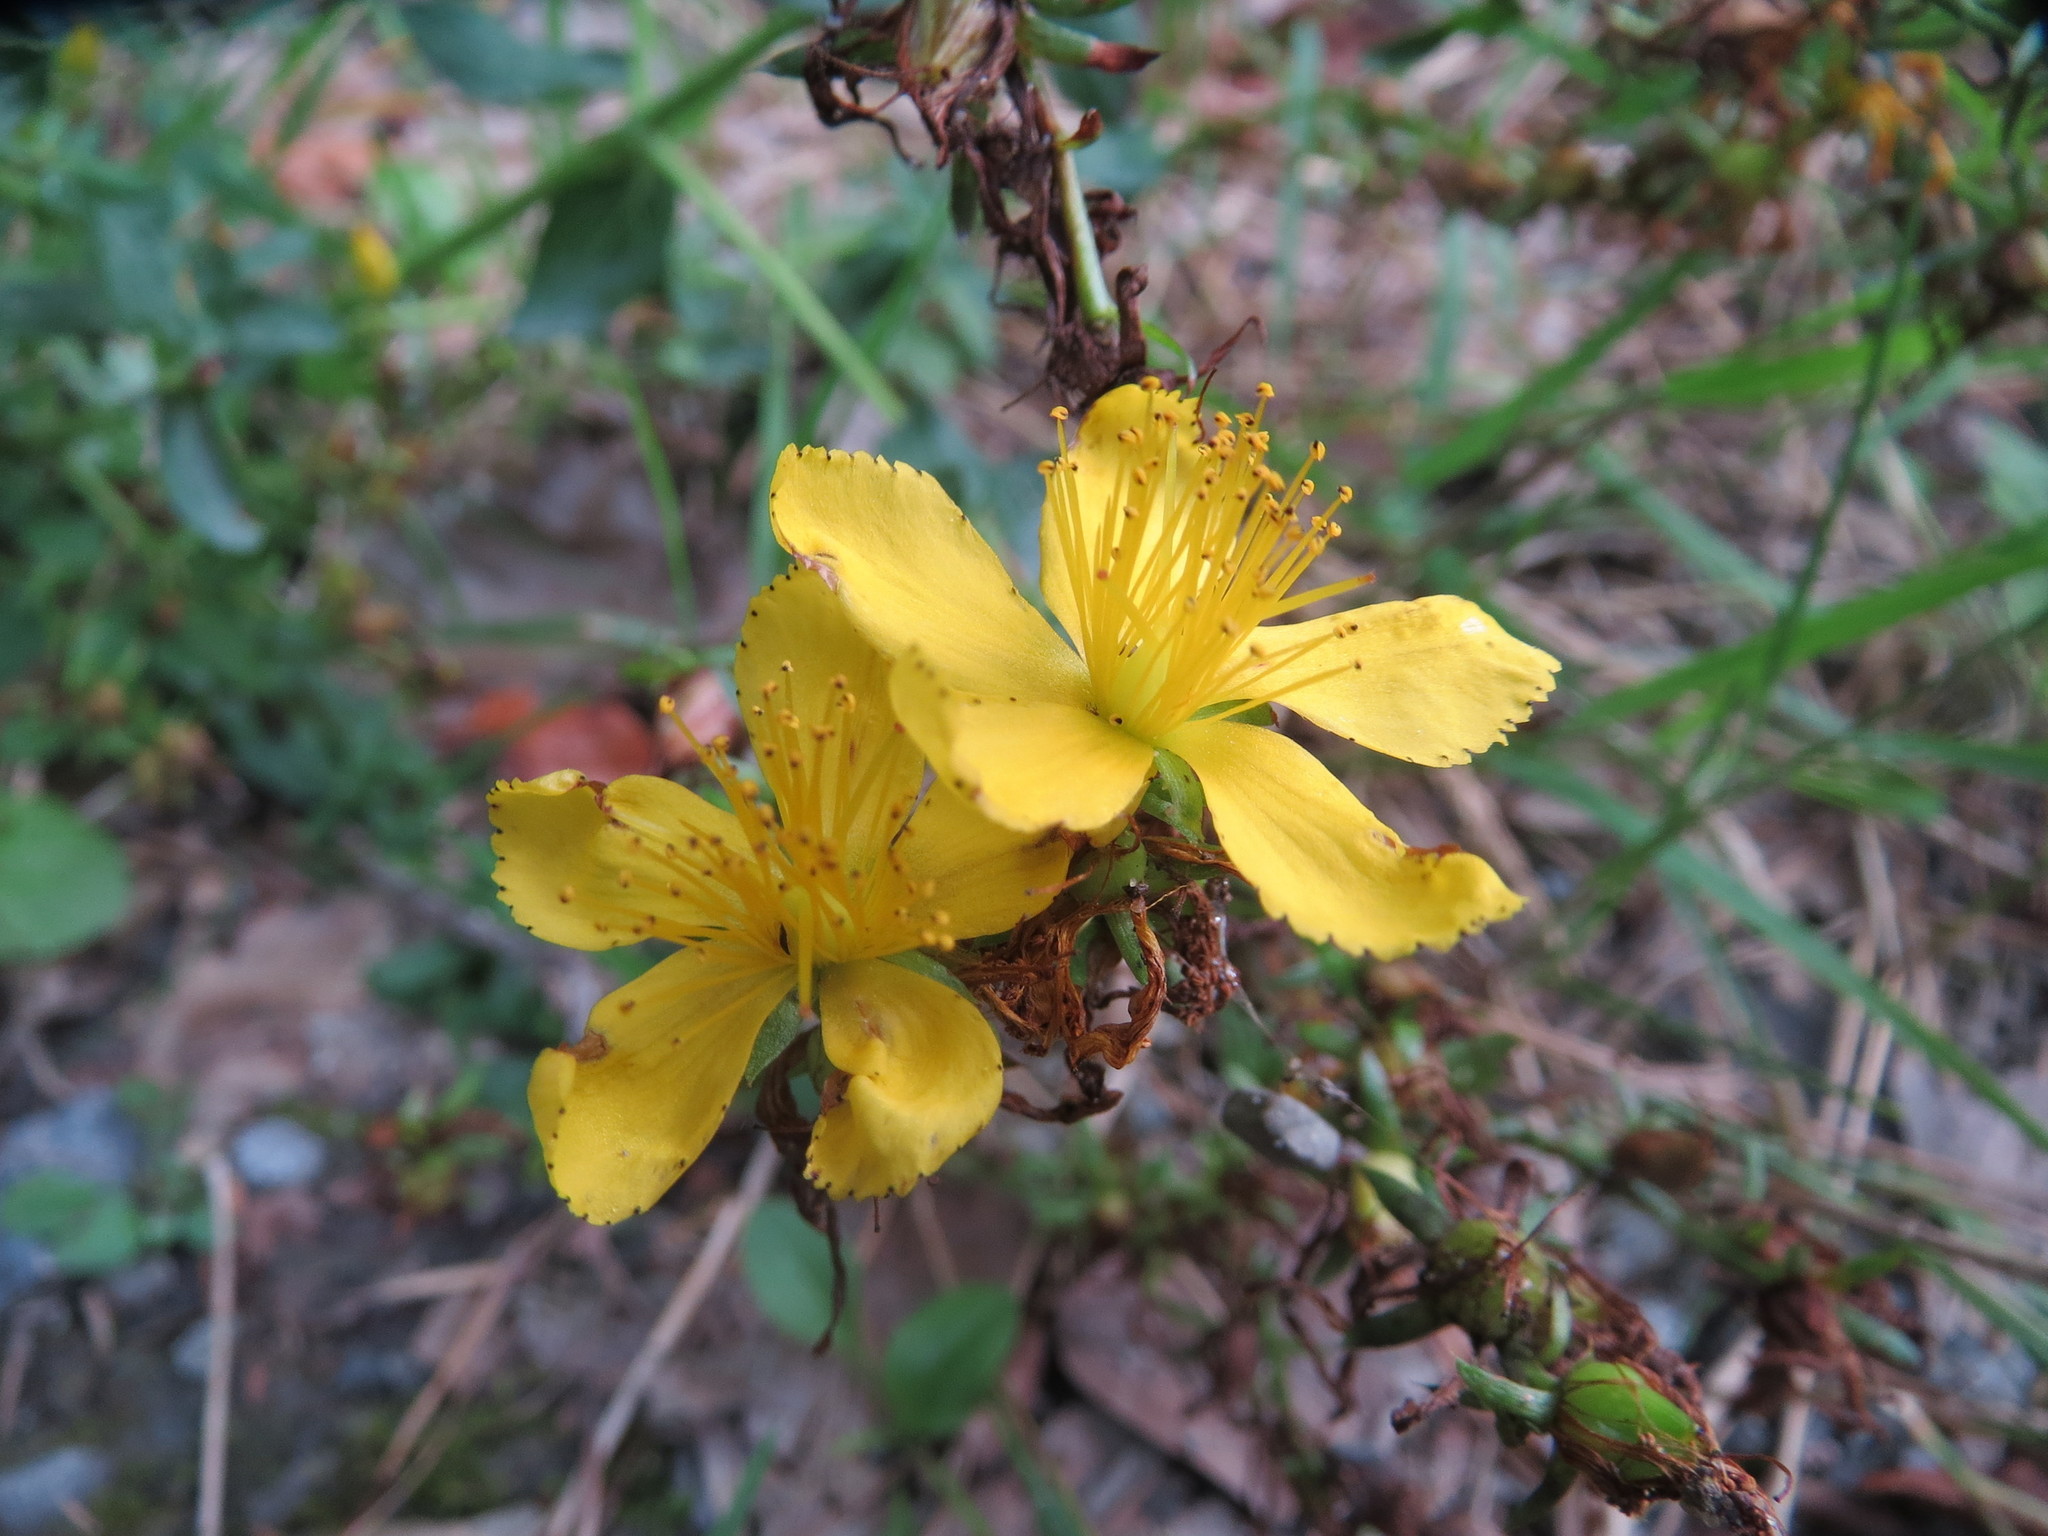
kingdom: Plantae
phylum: Tracheophyta
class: Magnoliopsida
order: Malpighiales
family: Hypericaceae
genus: Hypericum
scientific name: Hypericum perforatum
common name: Common st. johnswort
